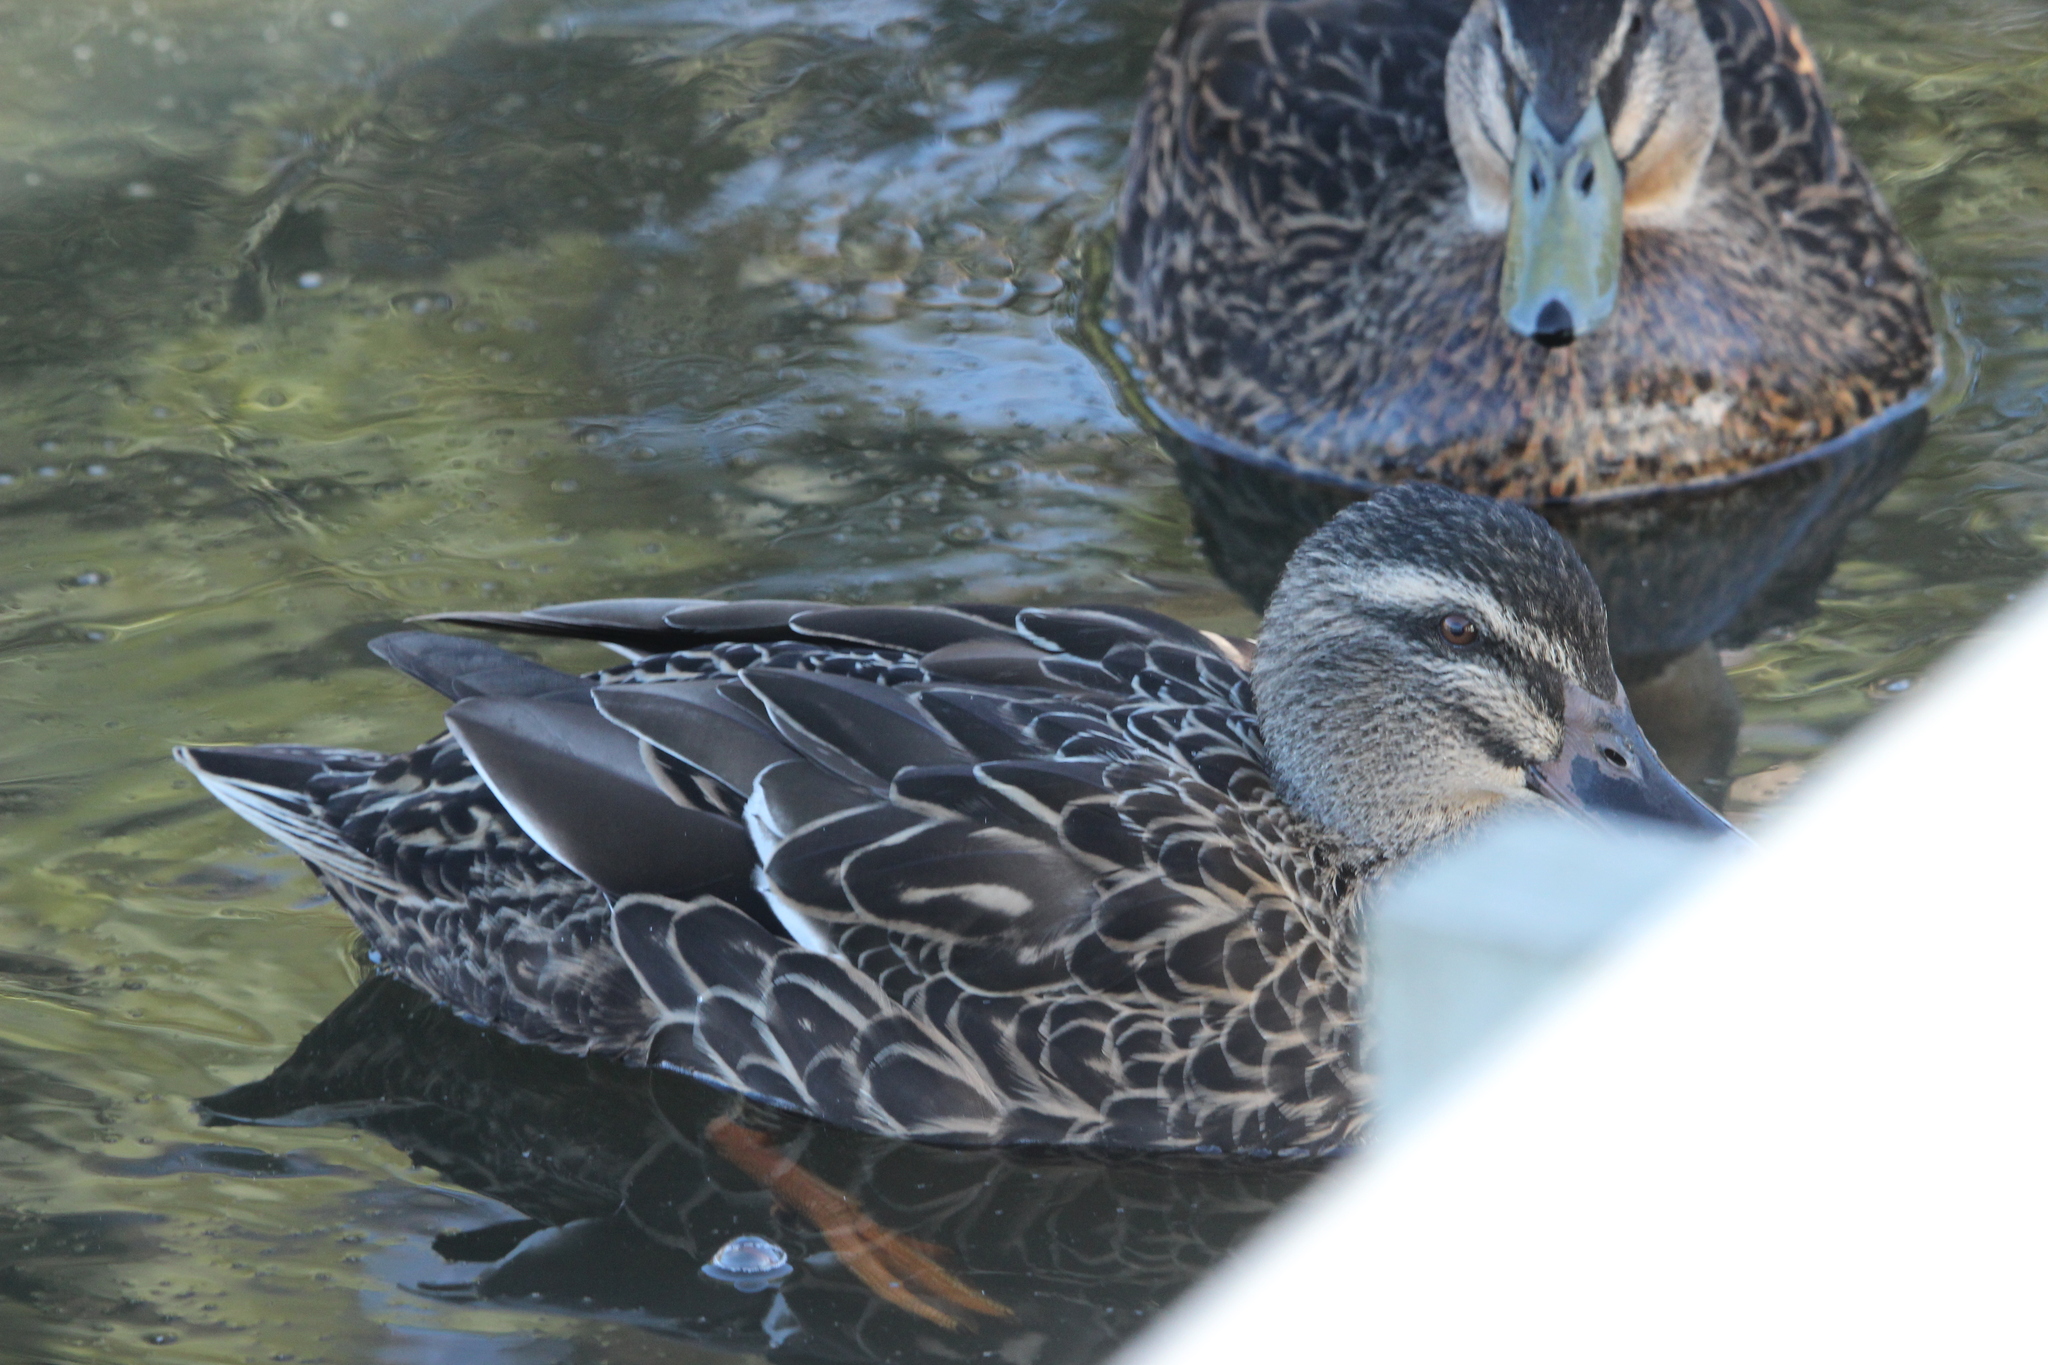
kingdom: Animalia
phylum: Chordata
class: Aves
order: Anseriformes
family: Anatidae
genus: Anas
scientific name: Anas
